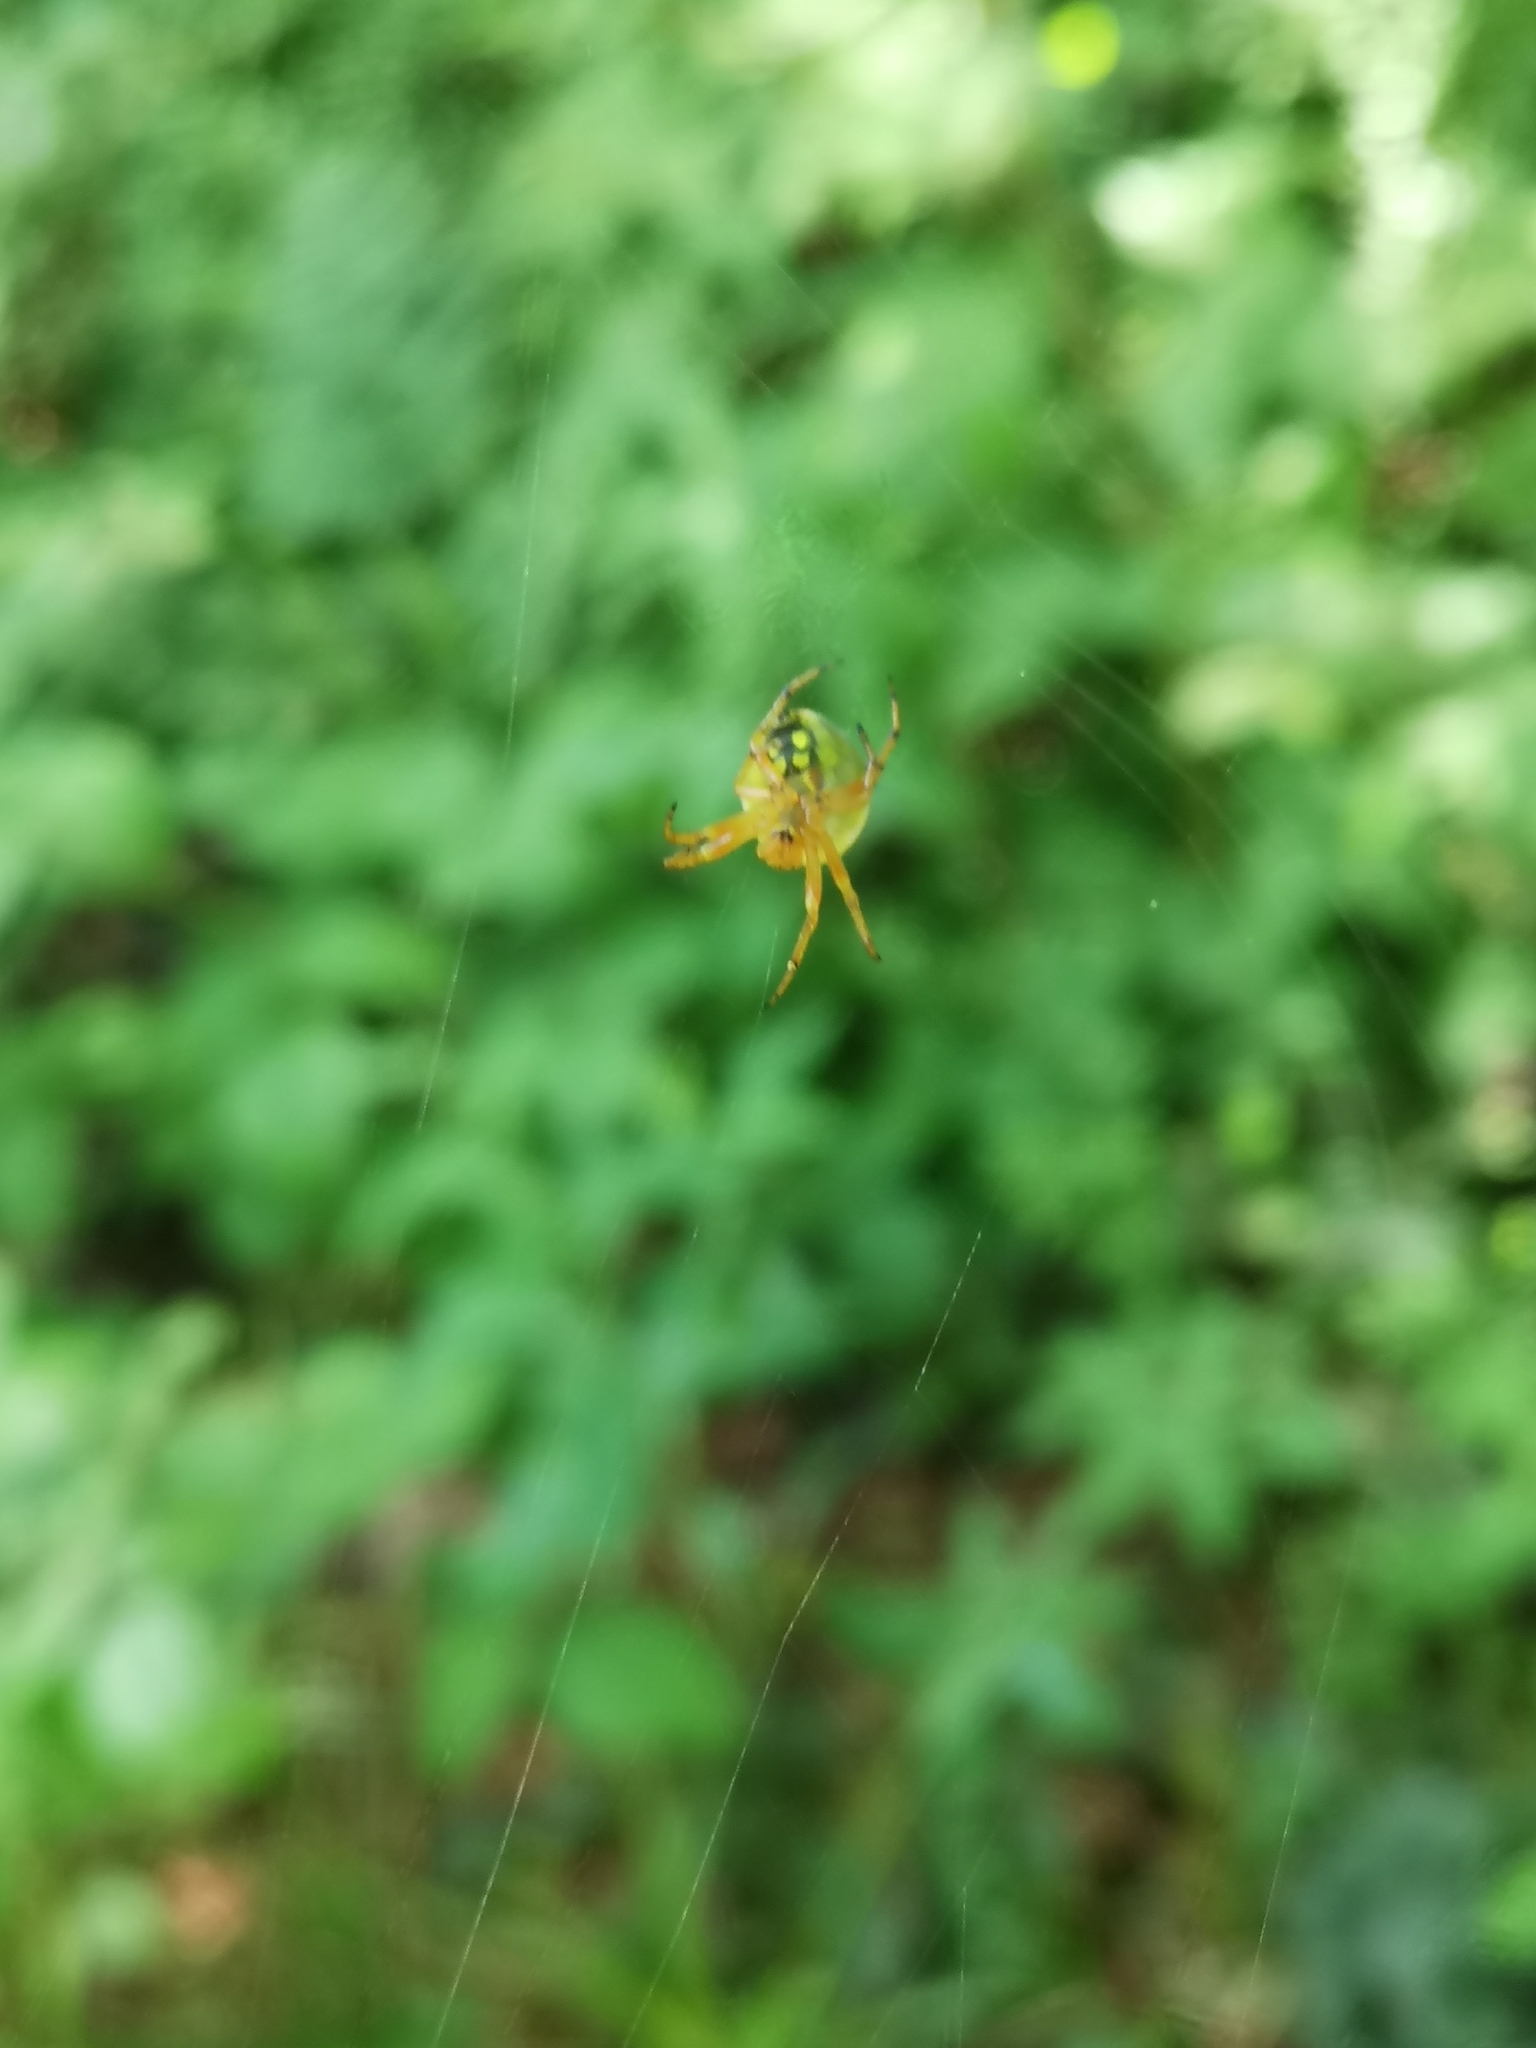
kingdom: Animalia
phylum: Arthropoda
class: Arachnida
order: Araneae
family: Araneidae
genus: Araniella
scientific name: Araniella alpica
